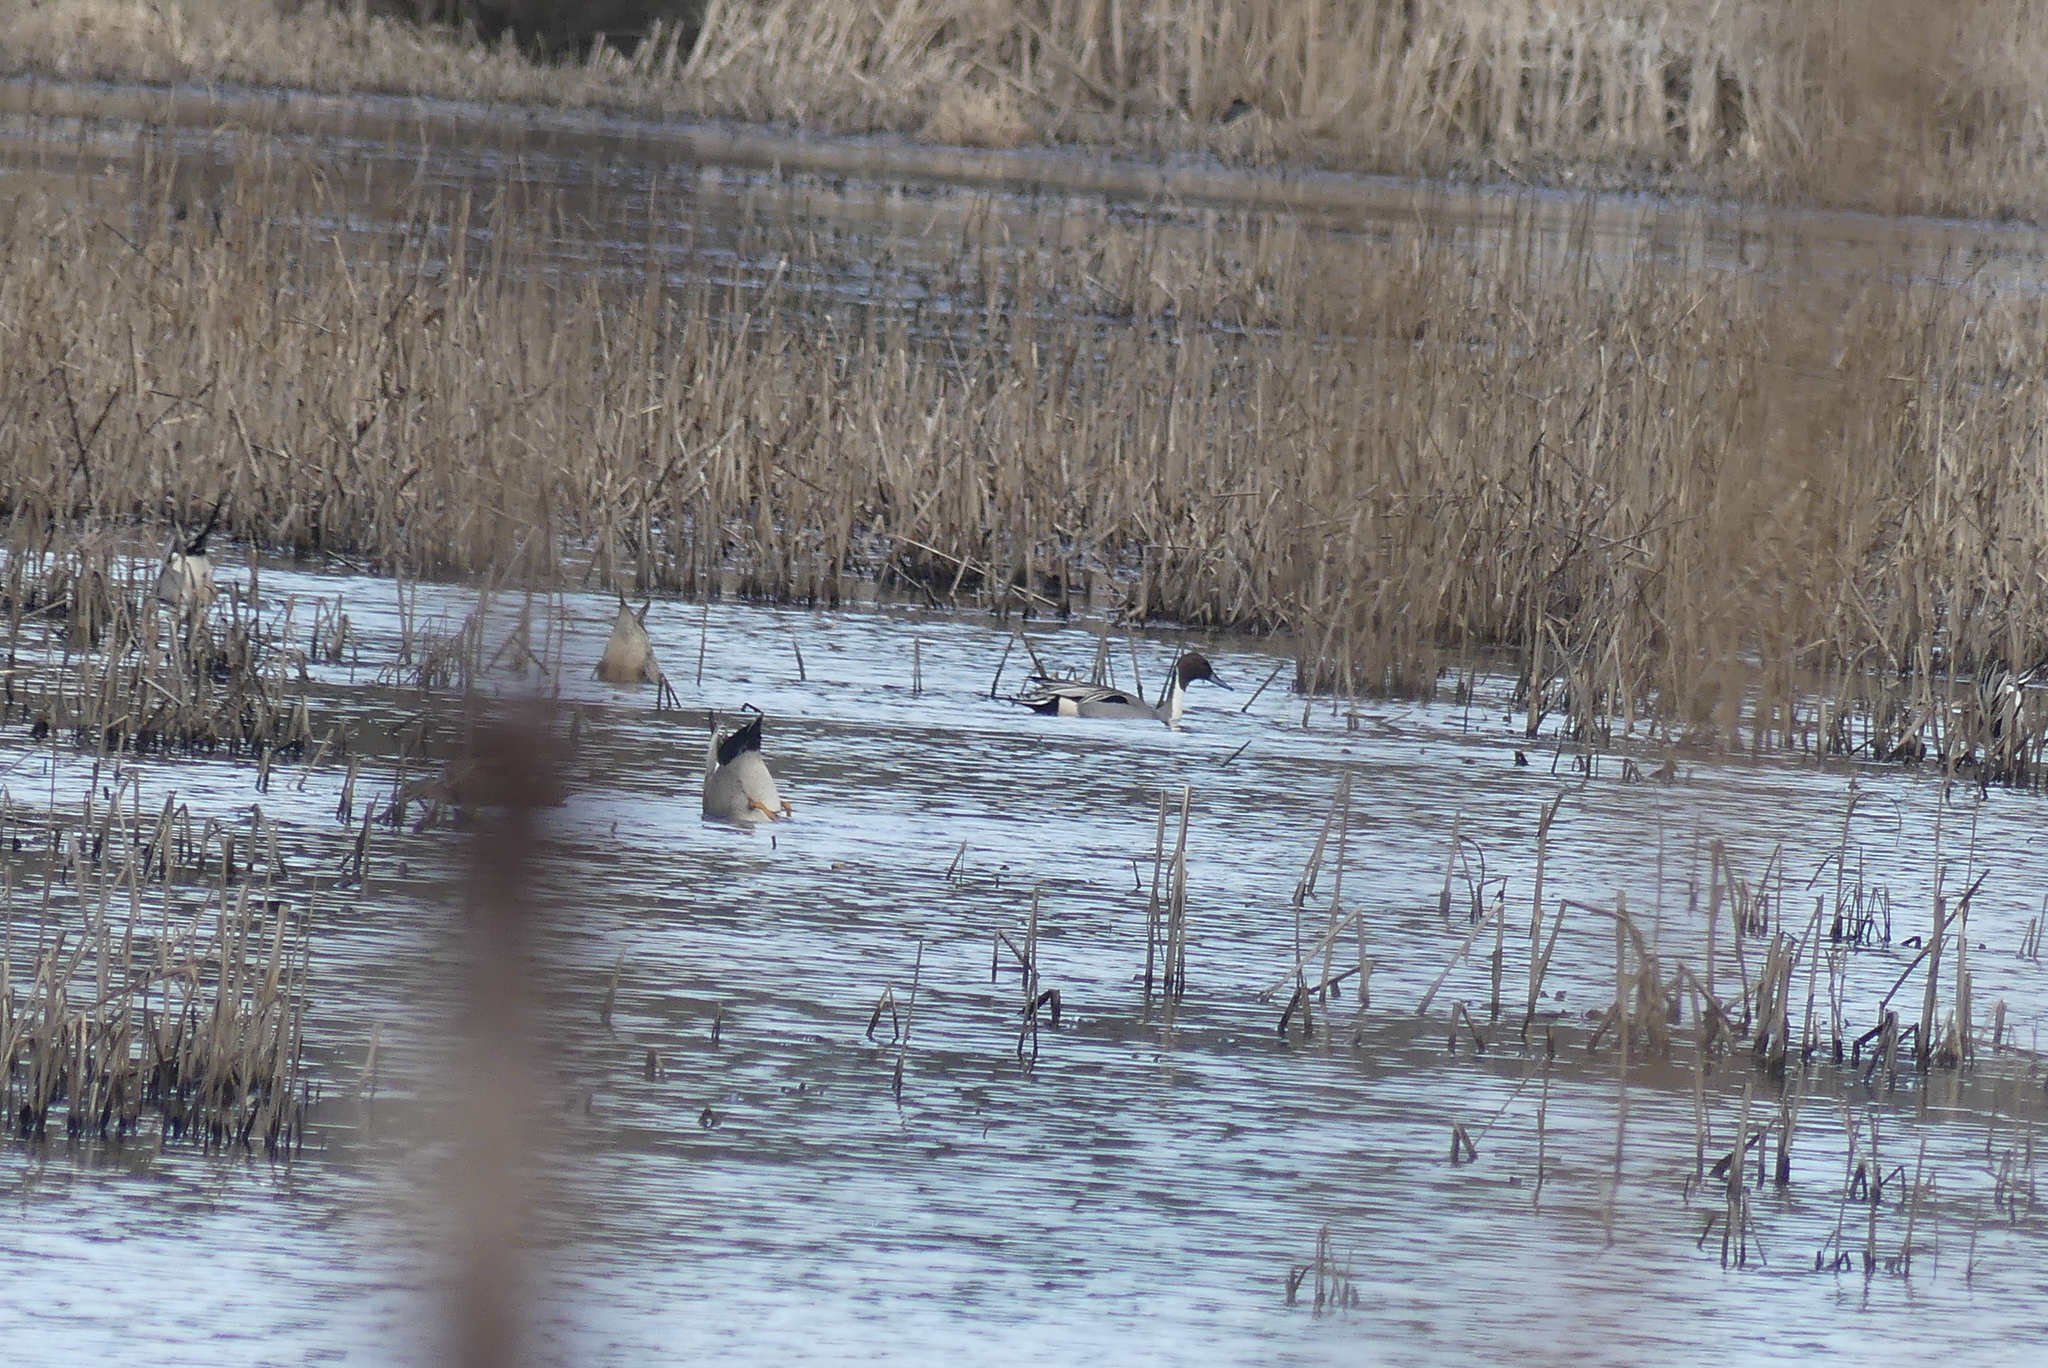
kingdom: Animalia
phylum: Chordata
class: Aves
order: Anseriformes
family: Anatidae
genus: Anas
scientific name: Anas acuta
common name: Northern pintail
